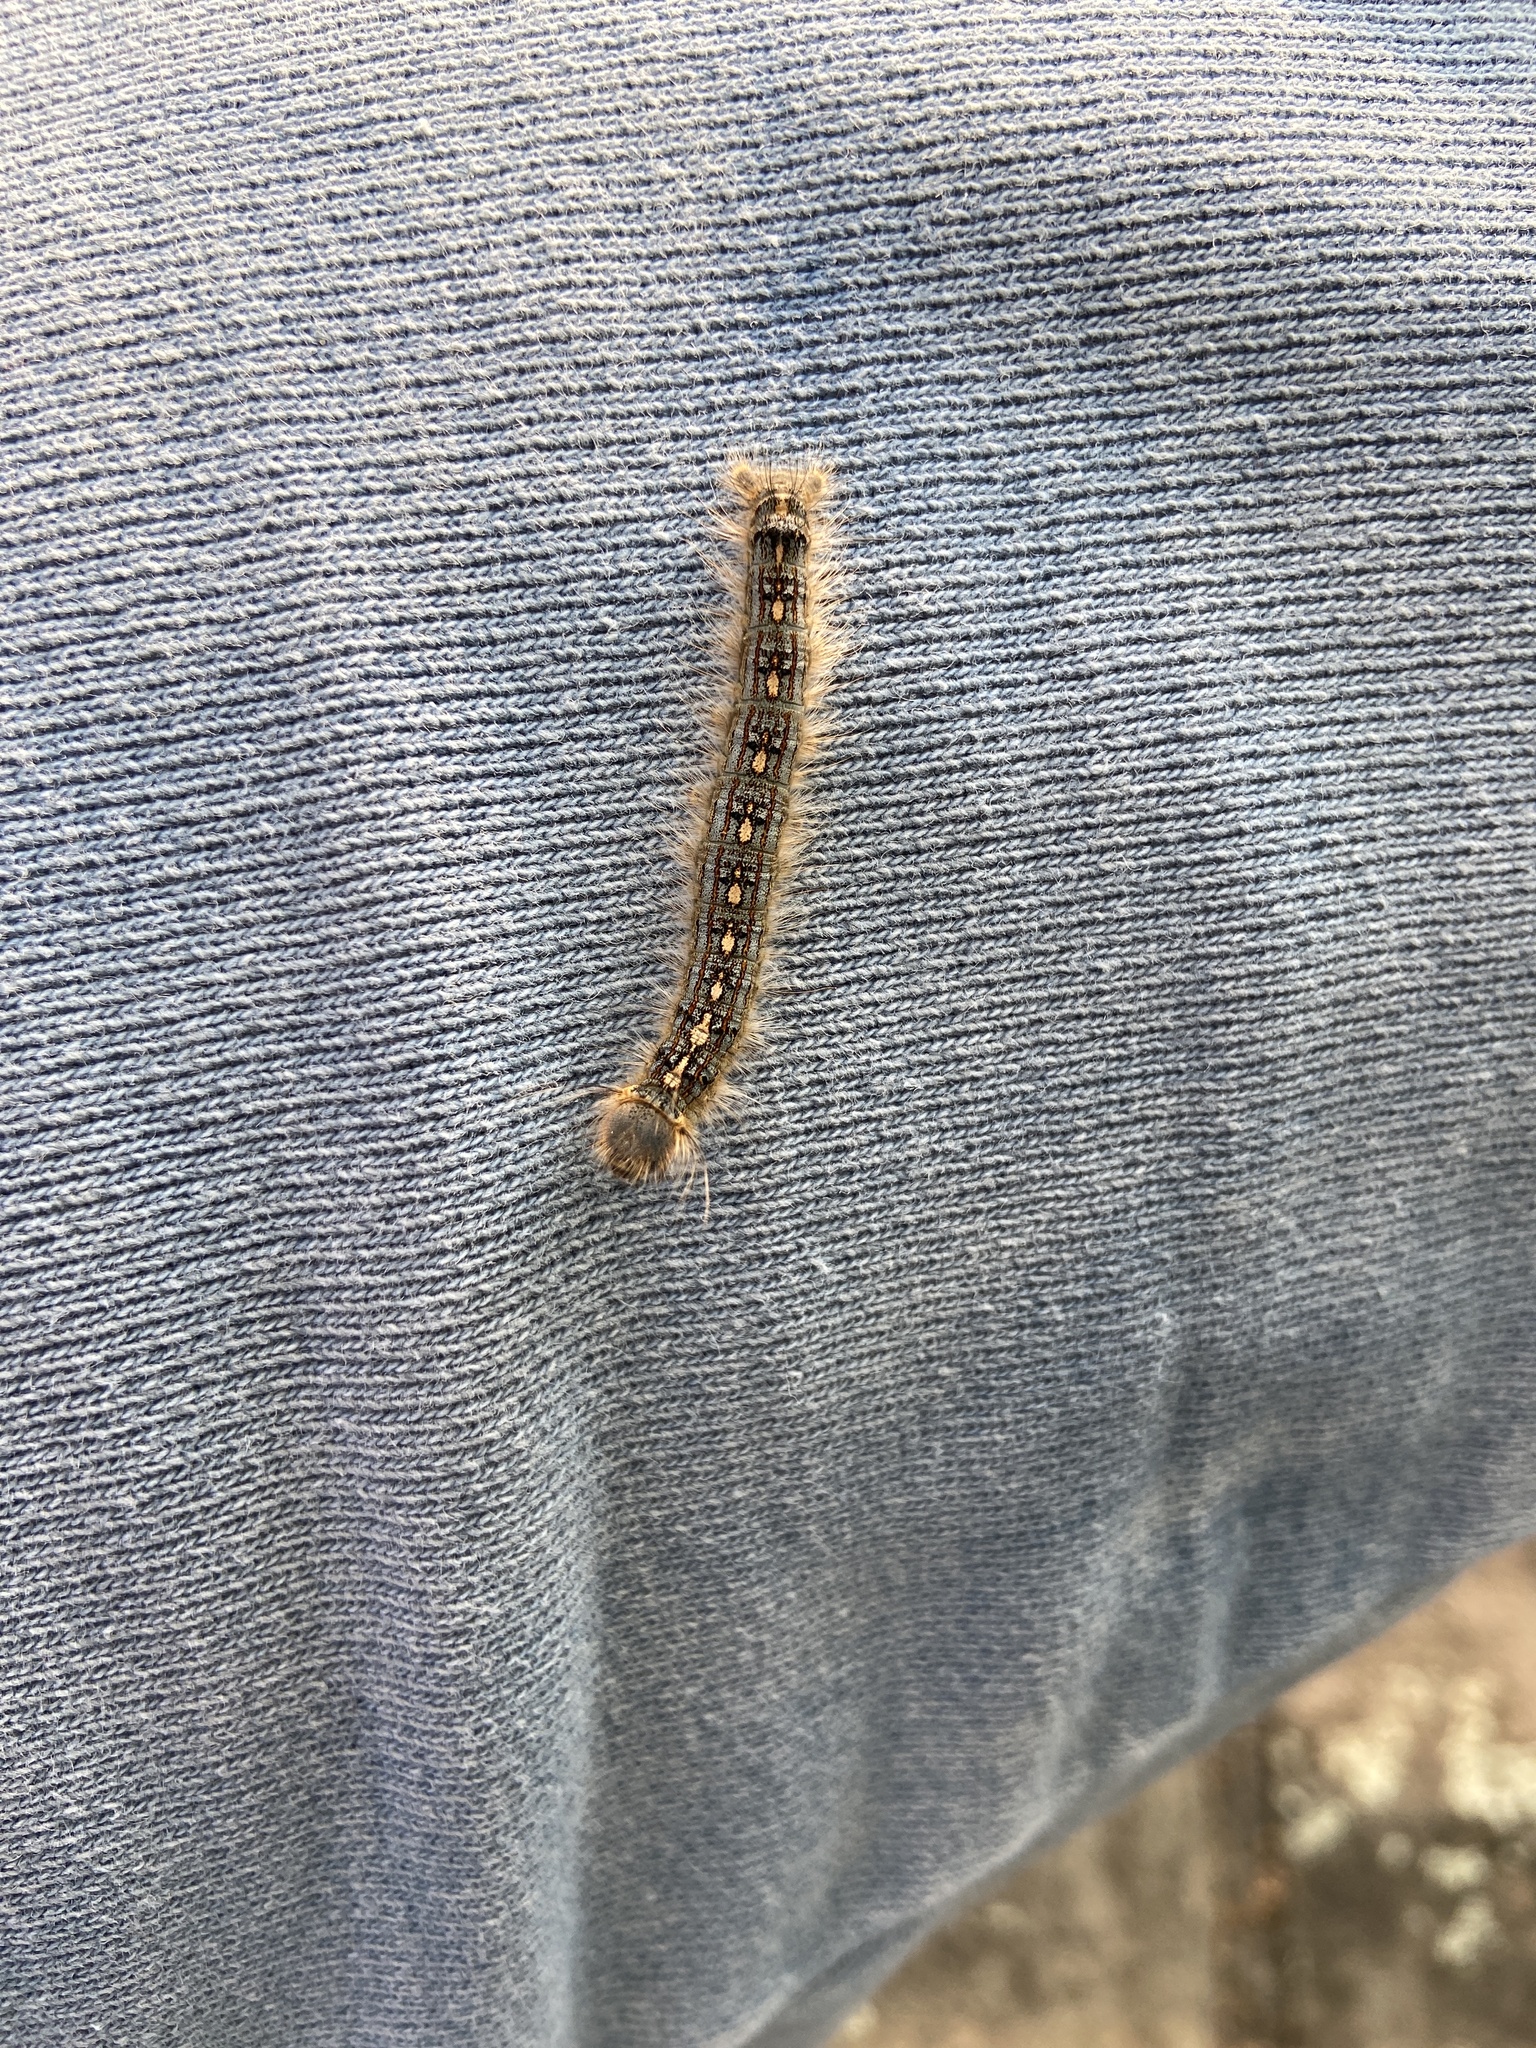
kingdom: Animalia
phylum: Arthropoda
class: Insecta
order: Lepidoptera
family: Lasiocampidae
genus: Malacosoma
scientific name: Malacosoma disstria
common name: Forest tent caterpillar
